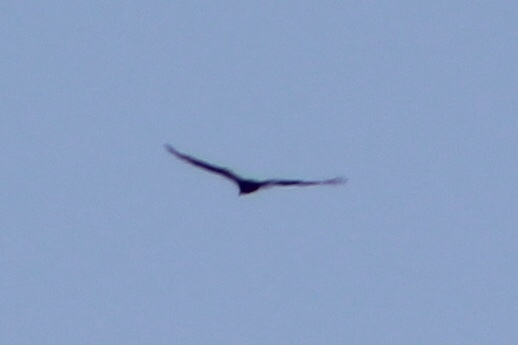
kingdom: Animalia
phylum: Chordata
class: Aves
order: Accipitriformes
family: Cathartidae
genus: Cathartes
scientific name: Cathartes aura
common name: Turkey vulture
